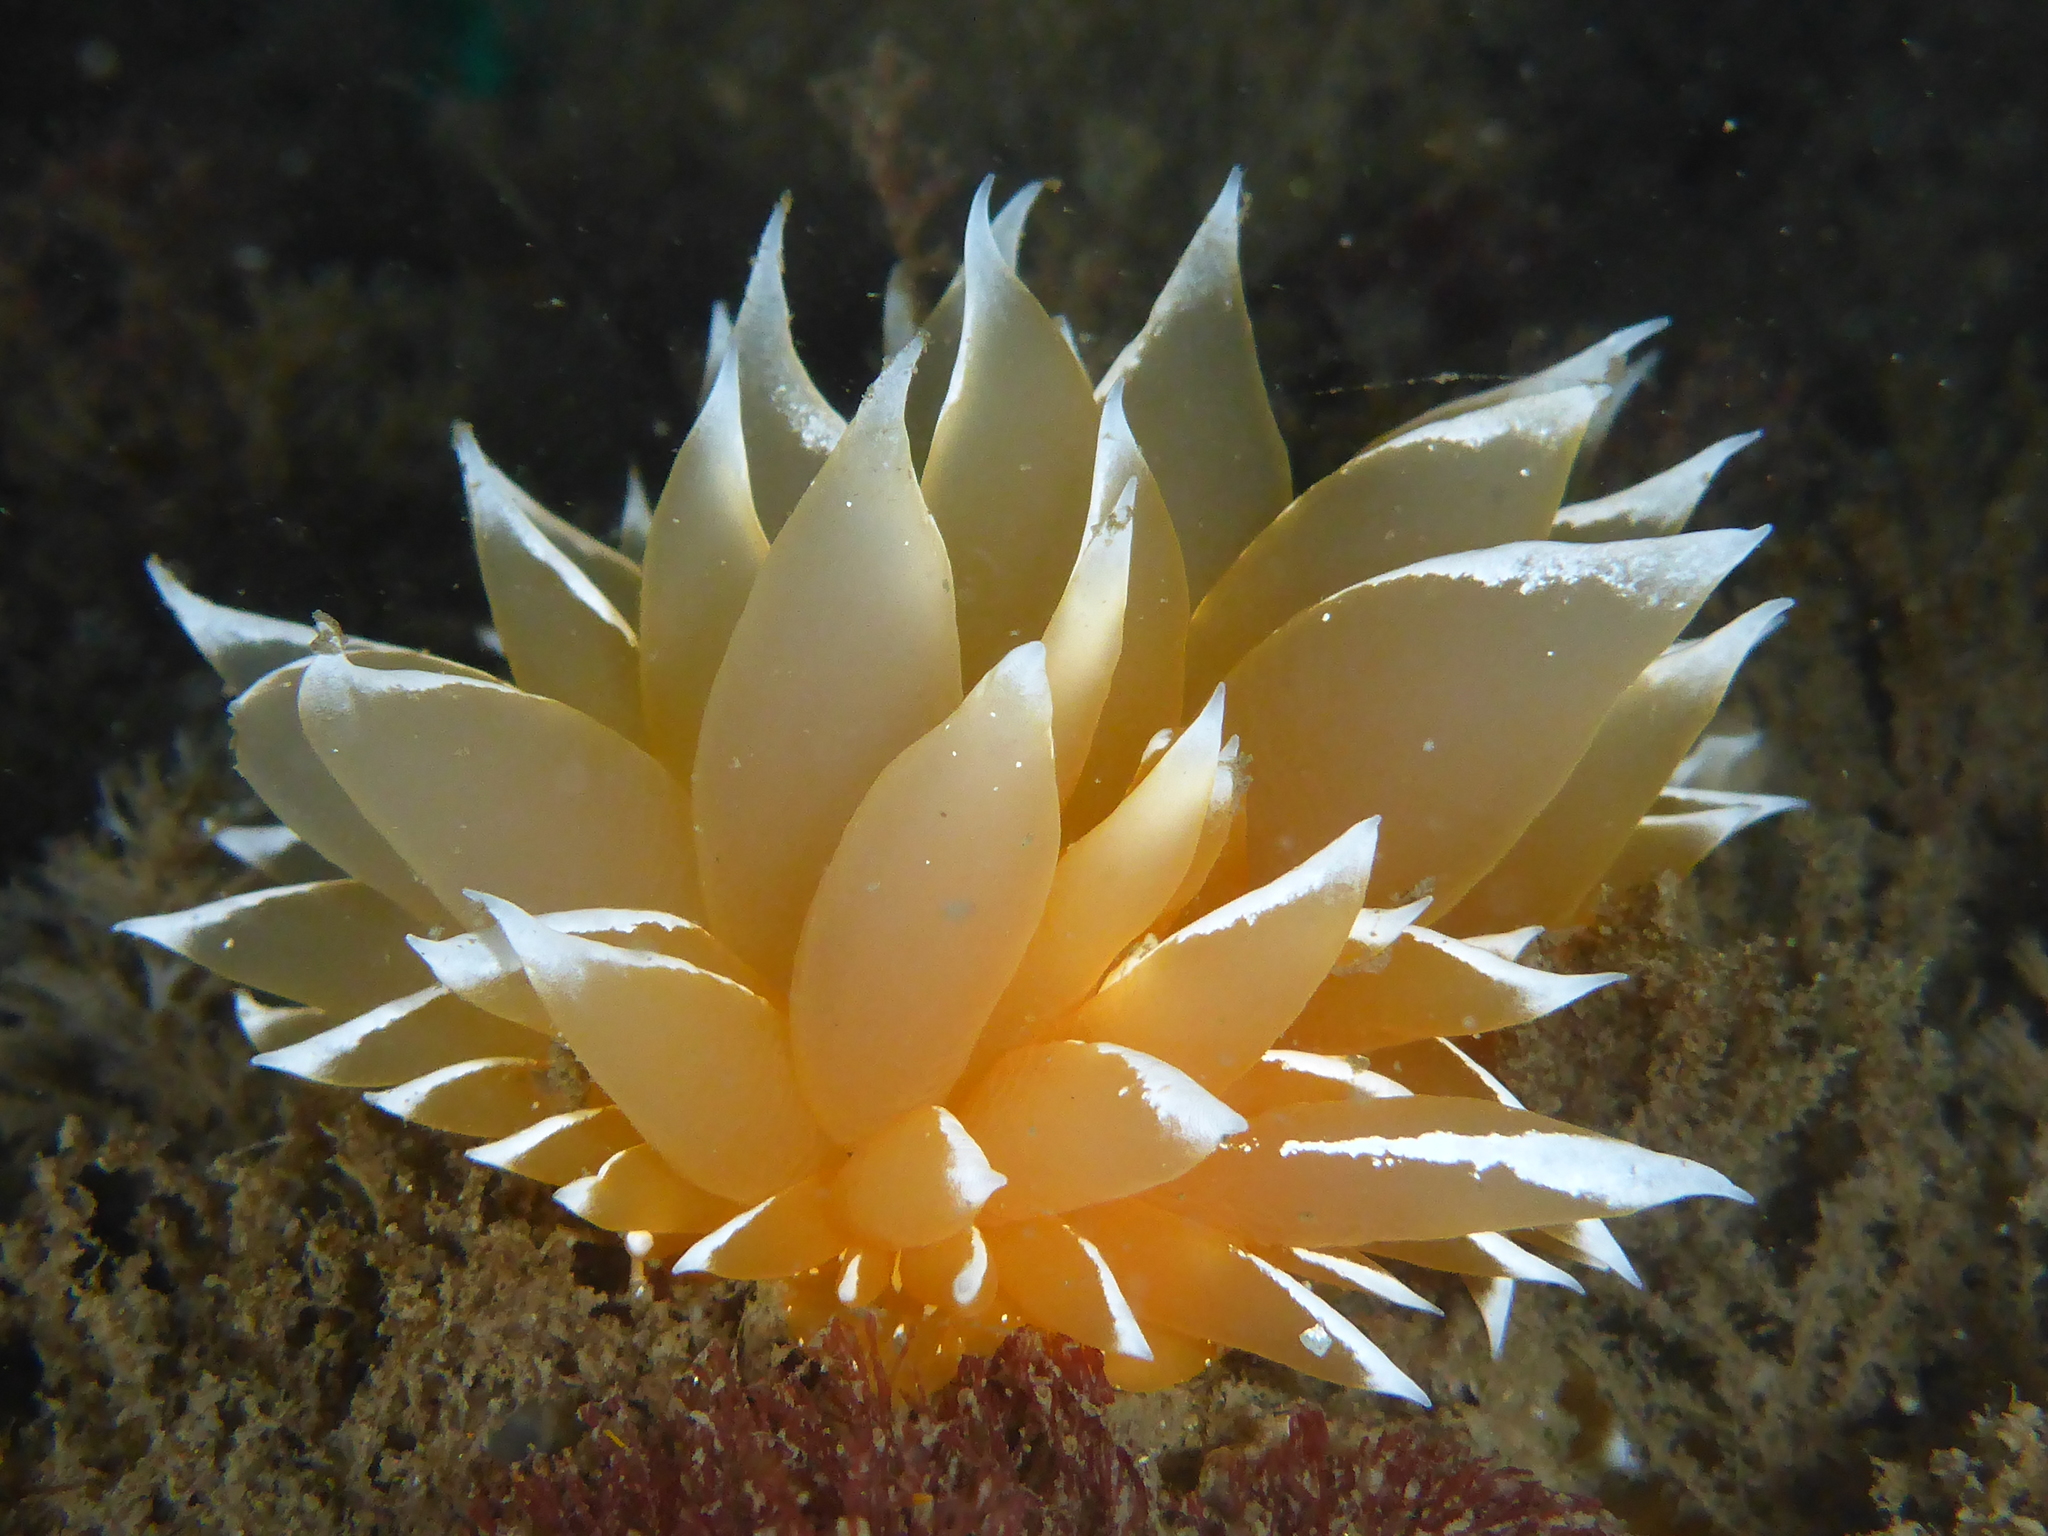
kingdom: Animalia
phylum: Mollusca
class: Gastropoda
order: Nudibranchia
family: Dironidae
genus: Dirona
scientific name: Dirona pellucida
